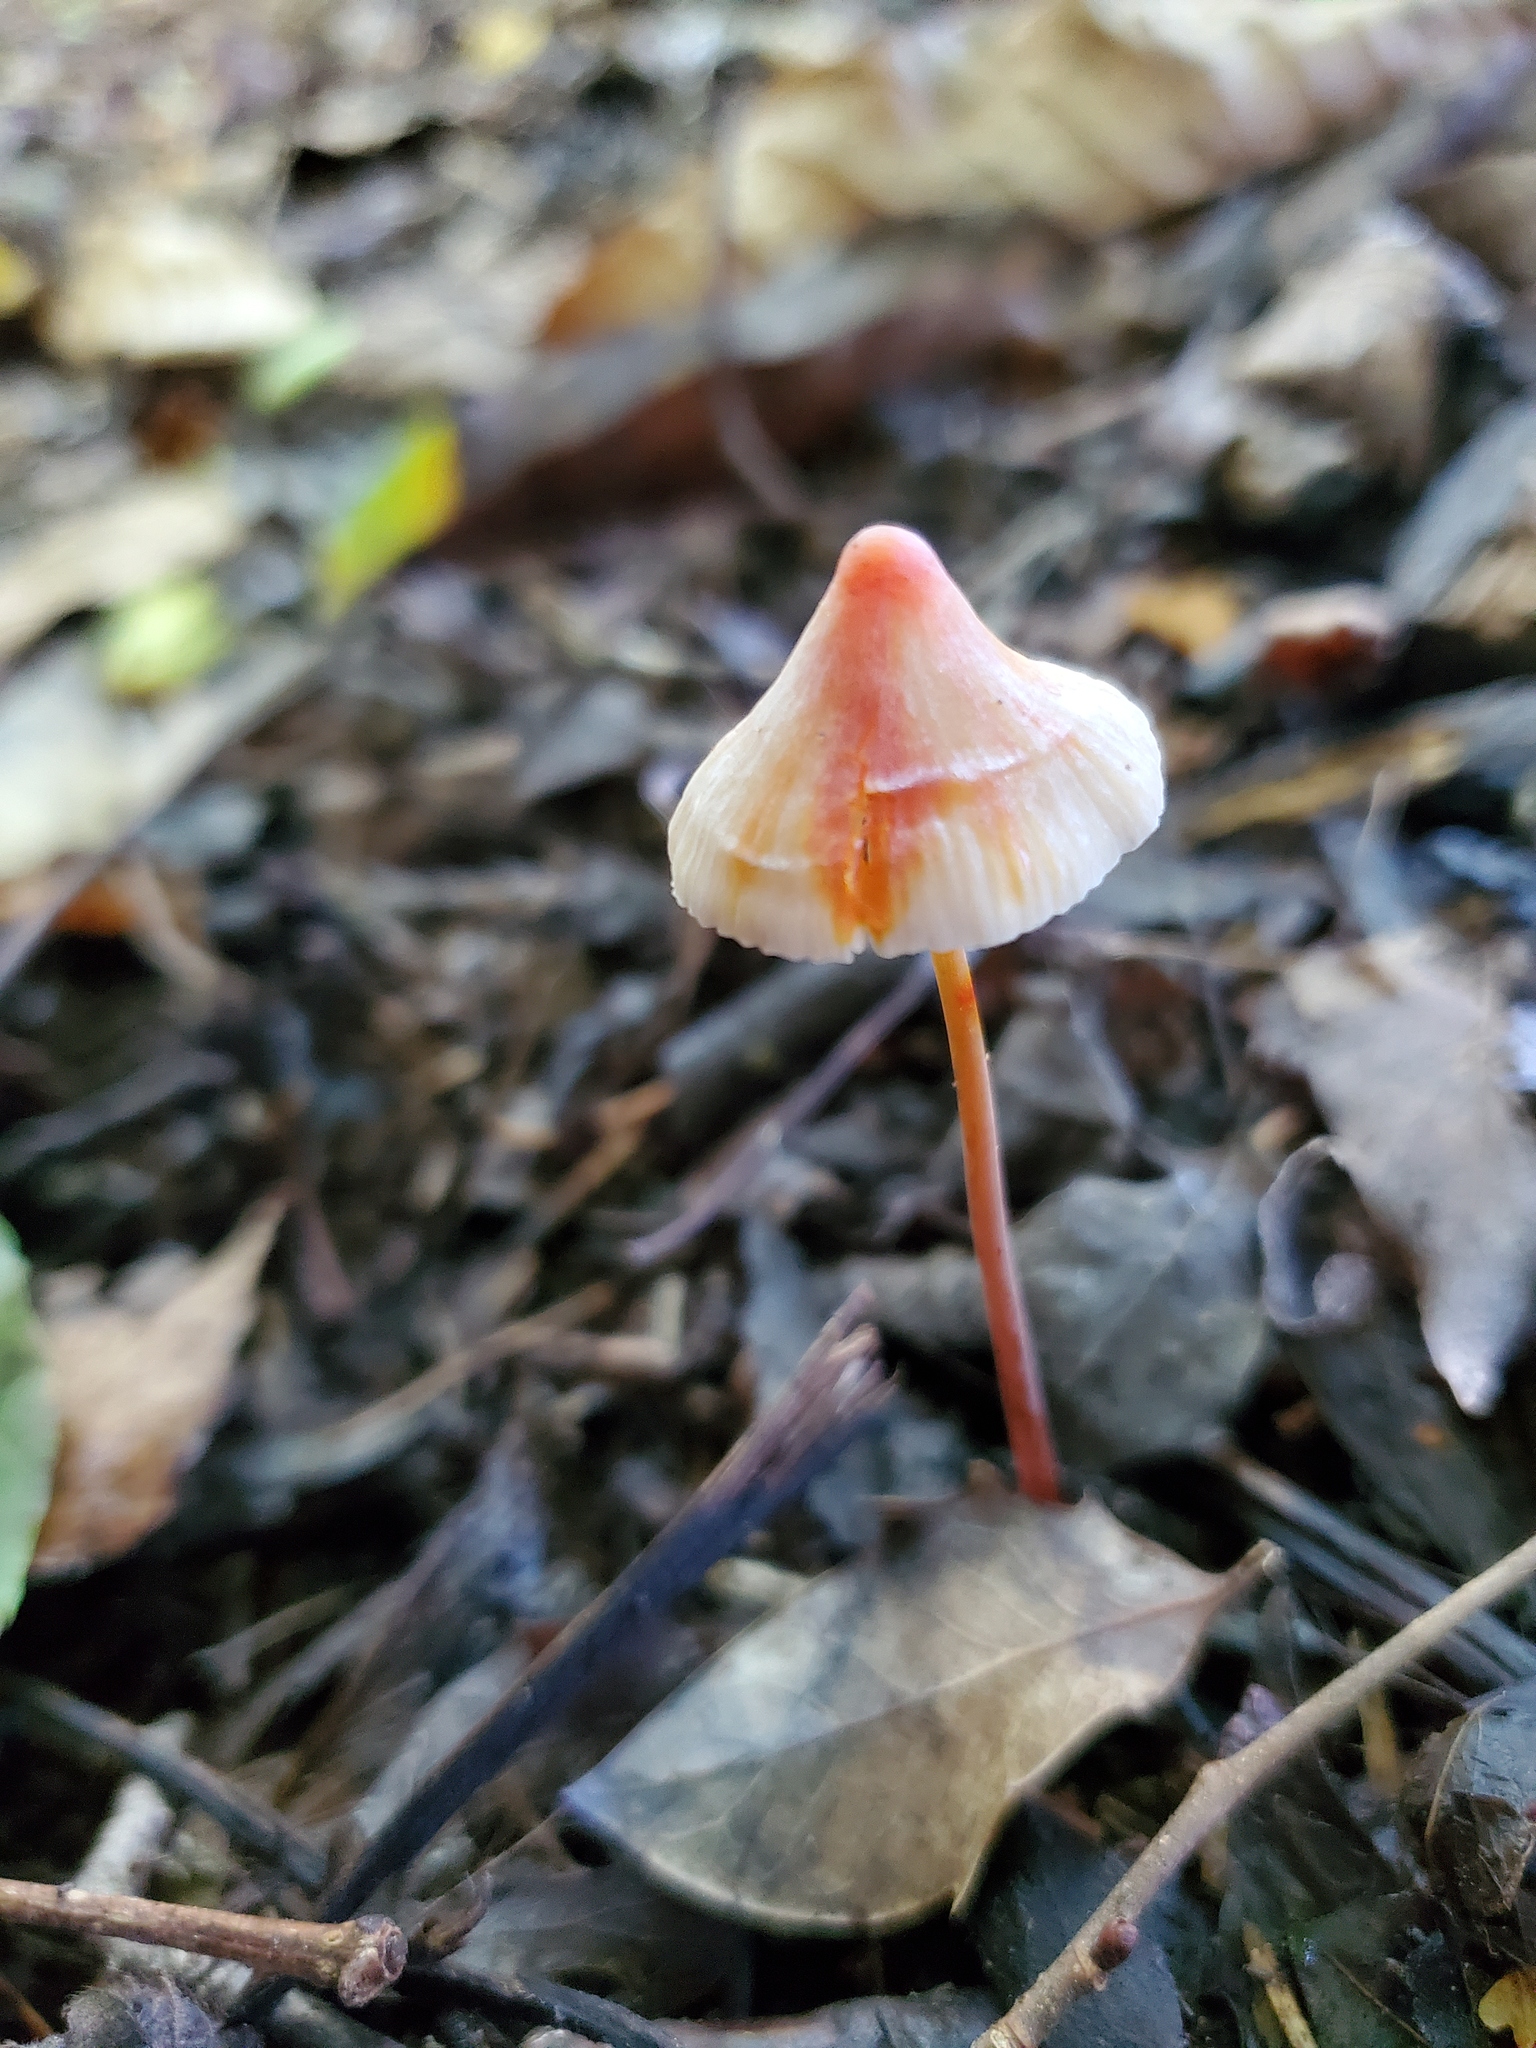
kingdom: Fungi
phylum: Basidiomycota
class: Agaricomycetes
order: Agaricales
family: Mycenaceae
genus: Mycena
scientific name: Mycena crocata
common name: Saffrondrop bonnet
